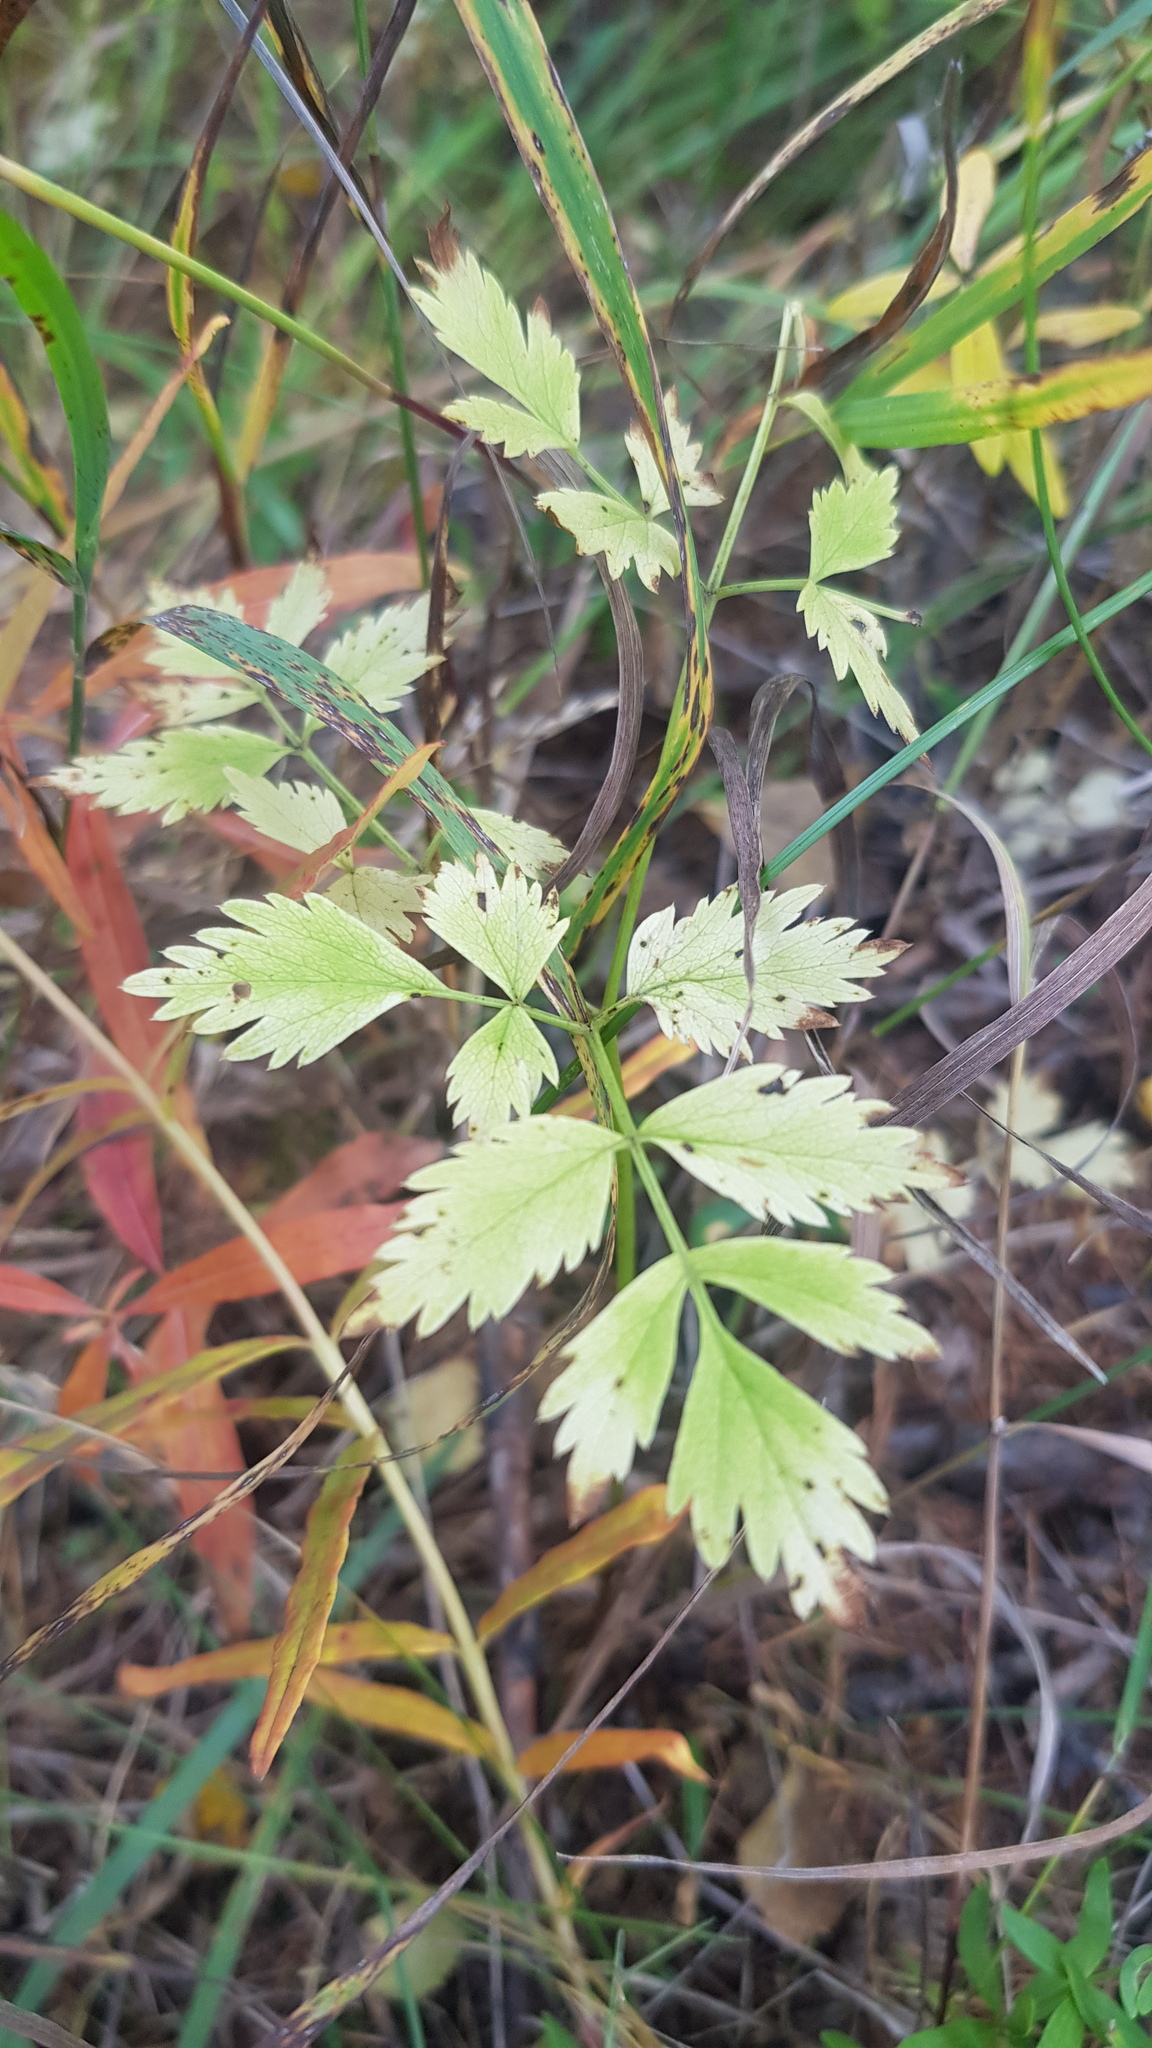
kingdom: Plantae
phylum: Tracheophyta
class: Magnoliopsida
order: Apiales
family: Apiaceae
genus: Aegopodium
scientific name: Aegopodium alpestre
